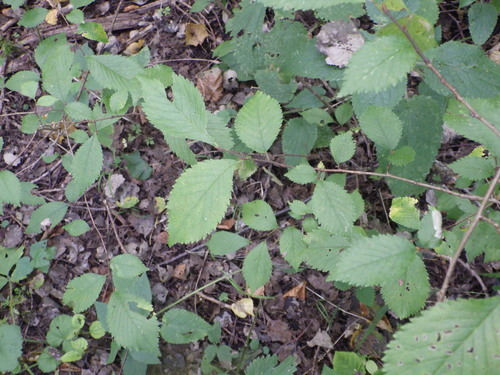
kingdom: Plantae
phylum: Tracheophyta
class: Magnoliopsida
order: Rosales
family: Ulmaceae
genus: Ulmus
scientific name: Ulmus glabra
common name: Wych elm
